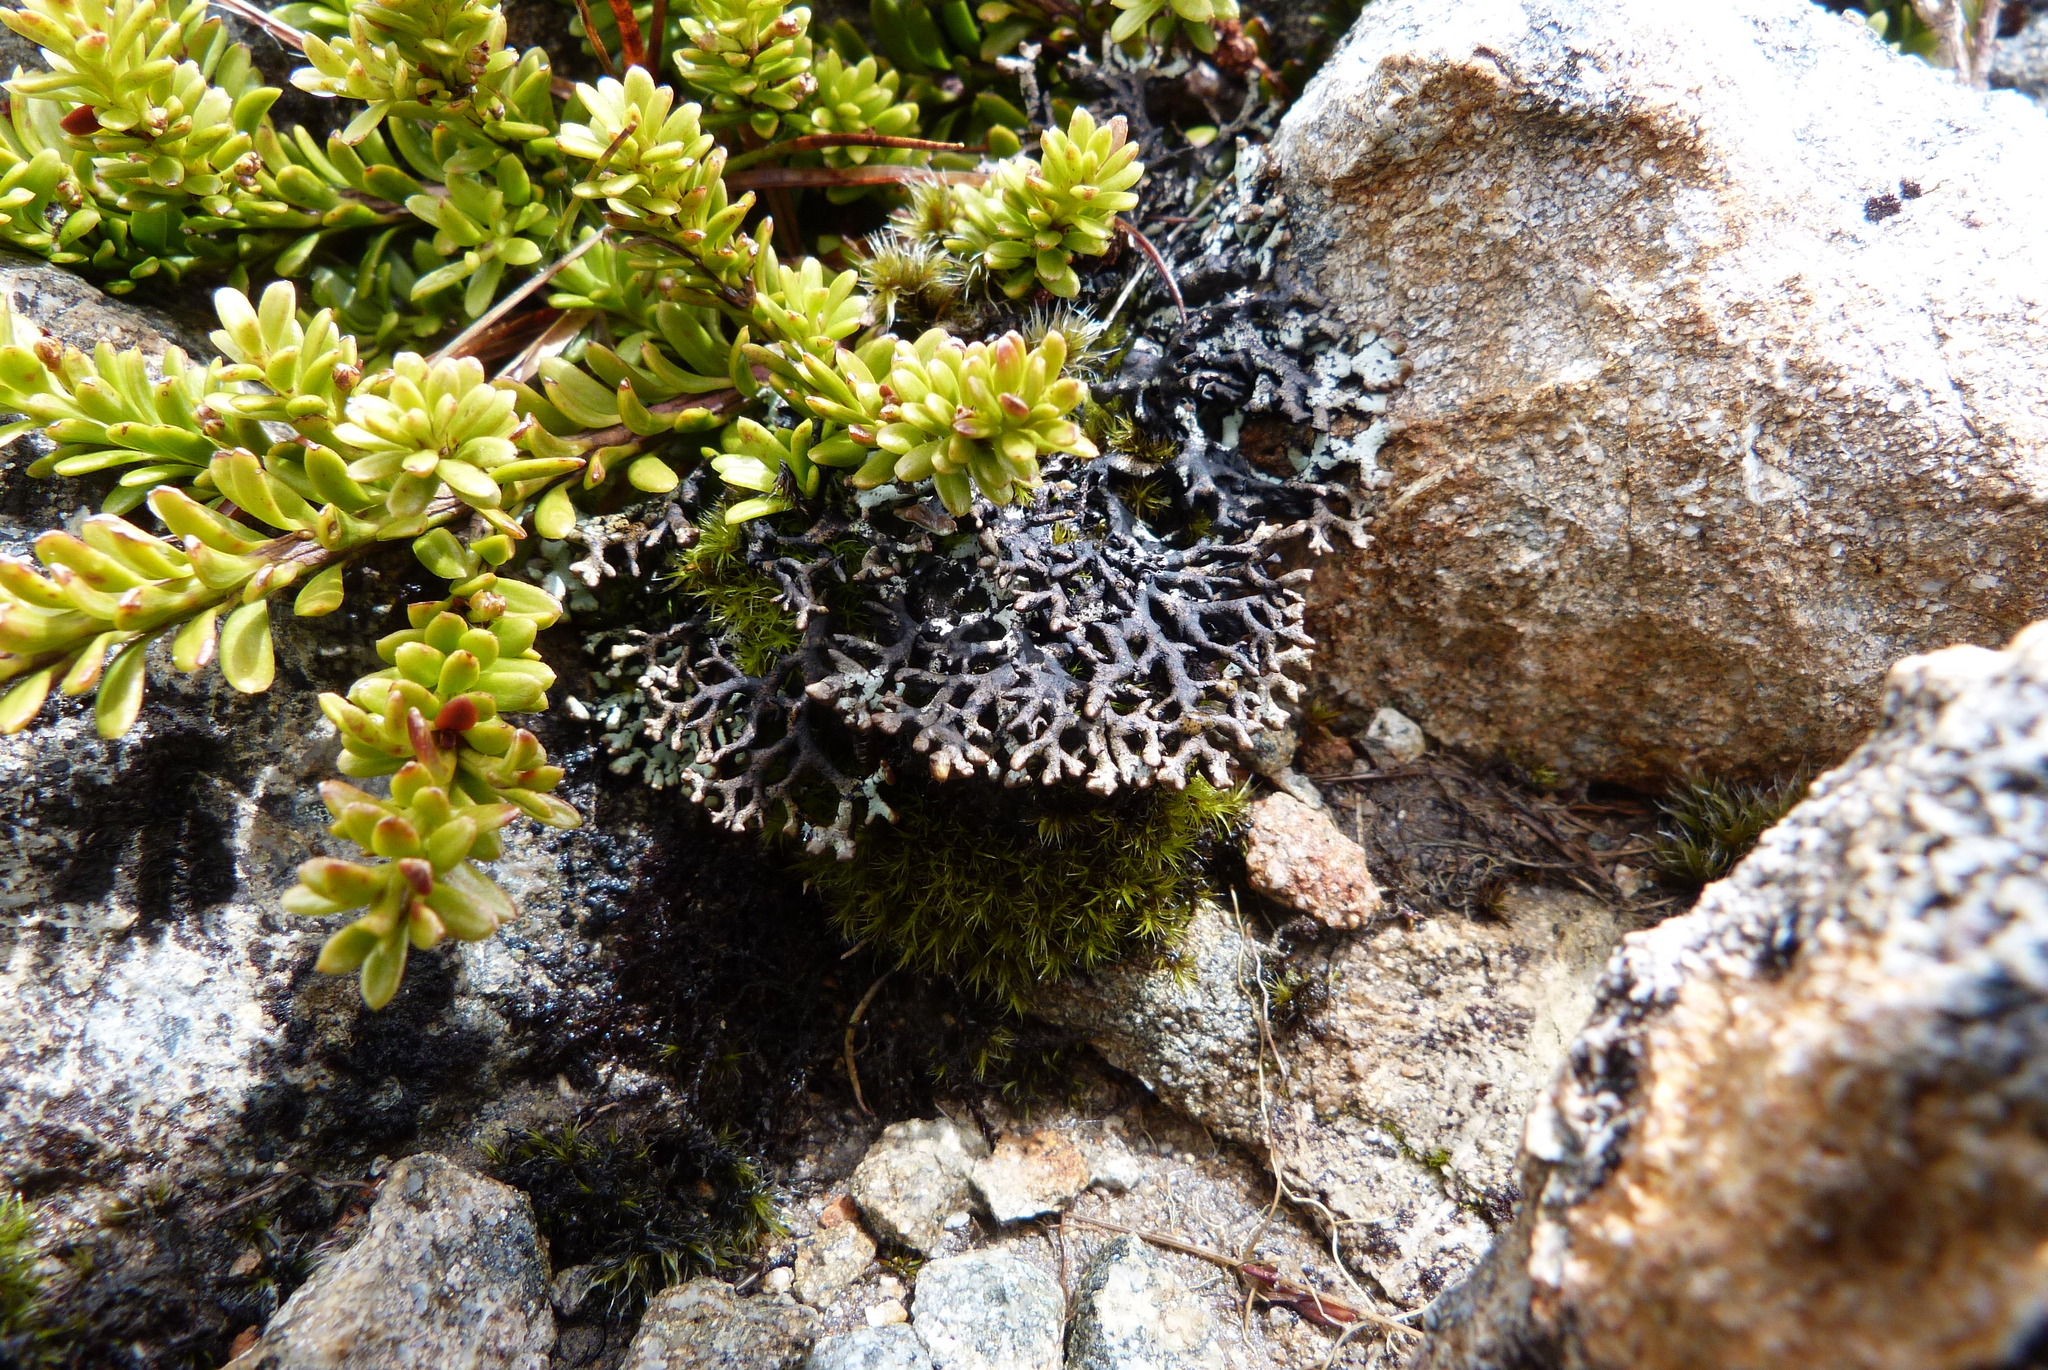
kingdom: Fungi
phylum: Ascomycota
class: Lecanoromycetes
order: Lecanorales
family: Parmeliaceae
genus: Hypogymnia
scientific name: Hypogymnia lugubris
